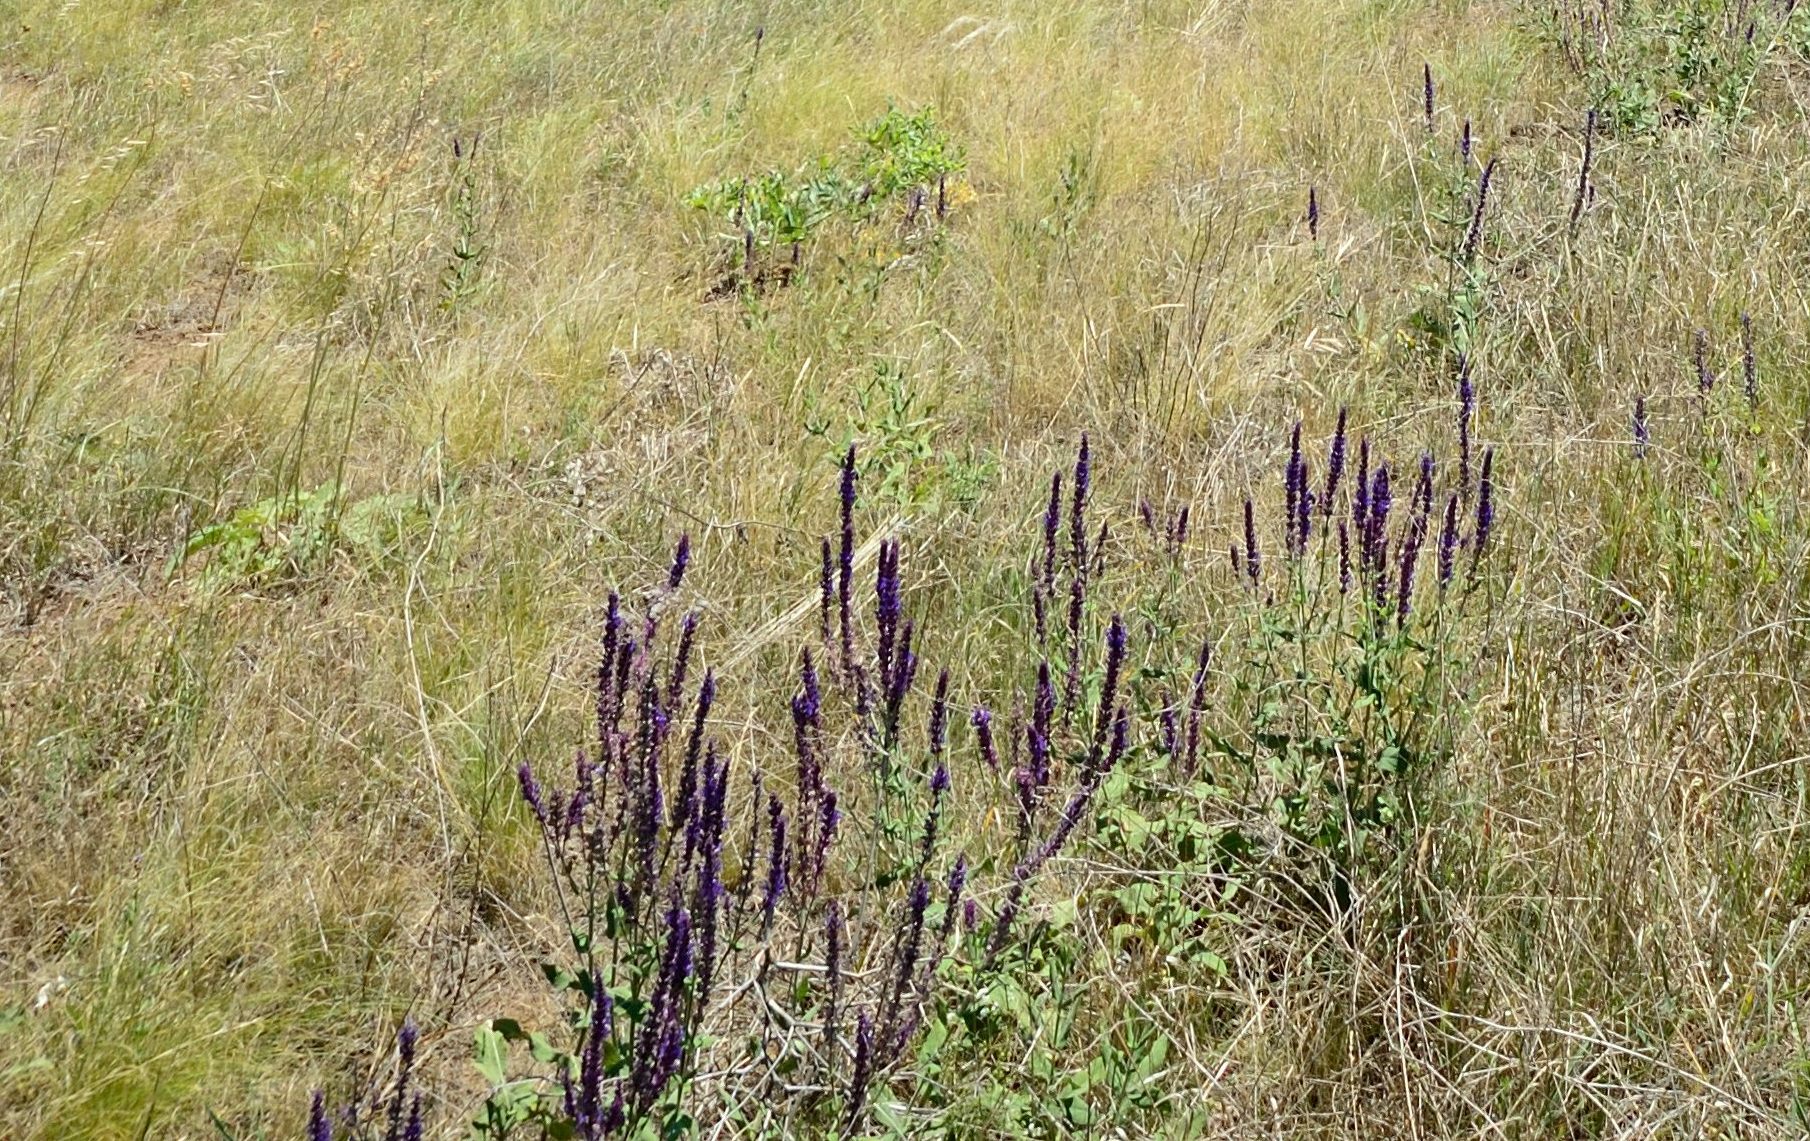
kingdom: Plantae
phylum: Tracheophyta
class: Magnoliopsida
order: Lamiales
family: Lamiaceae
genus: Salvia
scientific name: Salvia nemorosa
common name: Balkan clary
